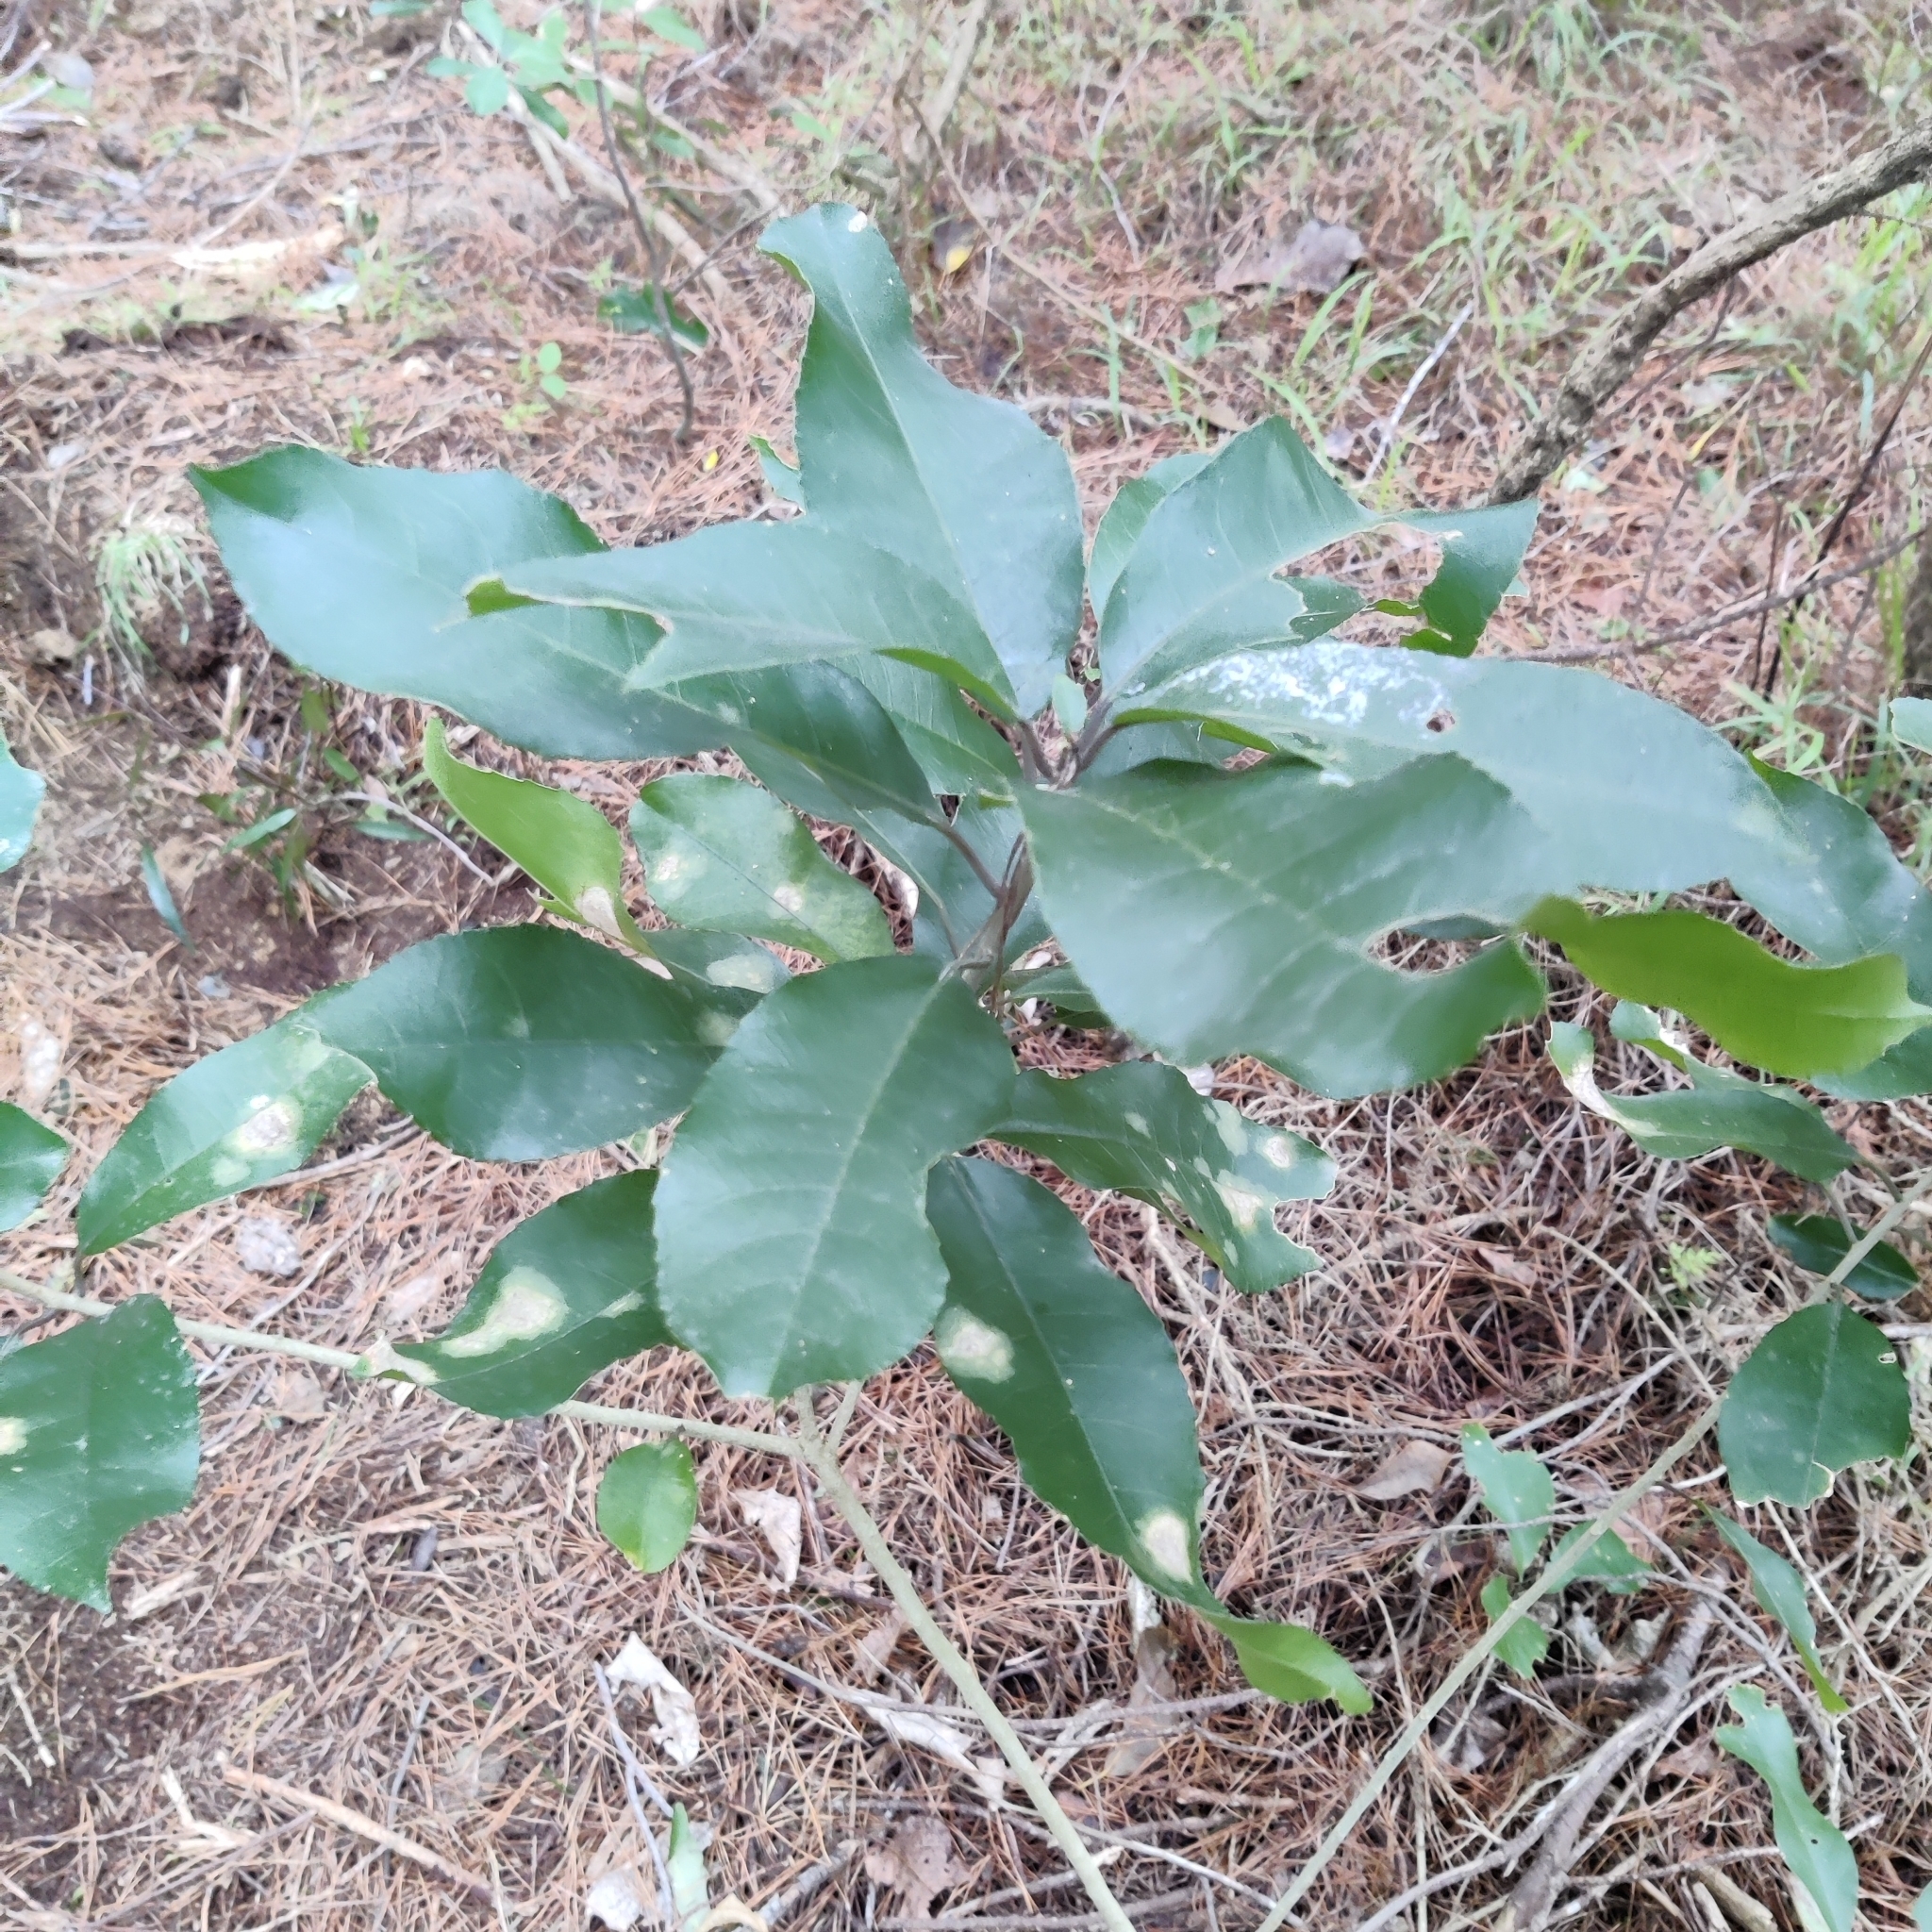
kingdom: Plantae
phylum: Tracheophyta
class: Magnoliopsida
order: Malpighiales
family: Violaceae
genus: Melicytus
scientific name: Melicytus ramiflorus
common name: Mahoe
